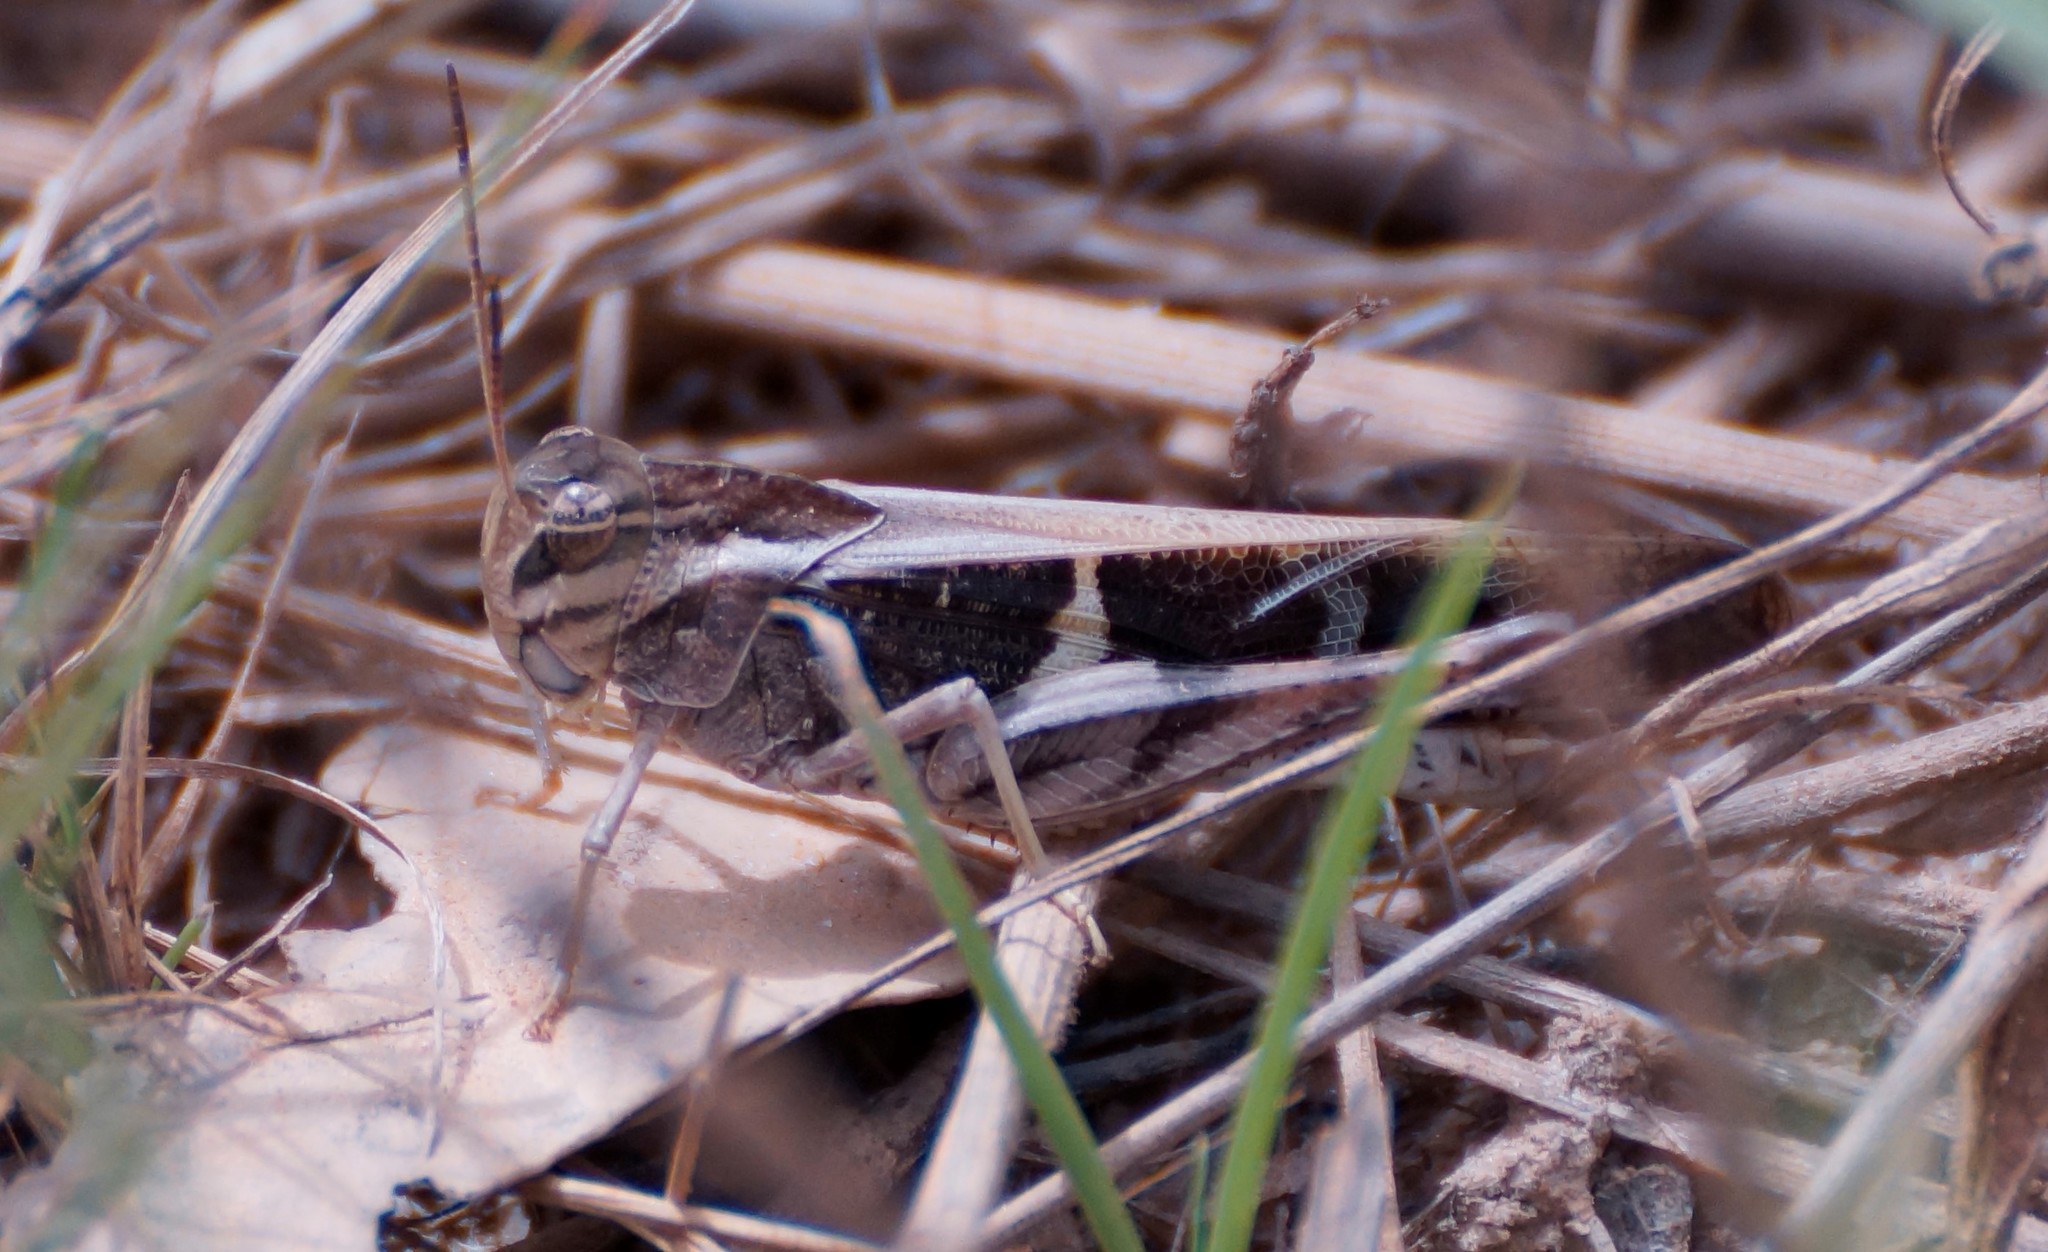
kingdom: Animalia
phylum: Arthropoda
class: Insecta
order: Orthoptera
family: Acrididae
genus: Gastrimargus
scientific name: Gastrimargus musicus
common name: Yellow-winged locust
